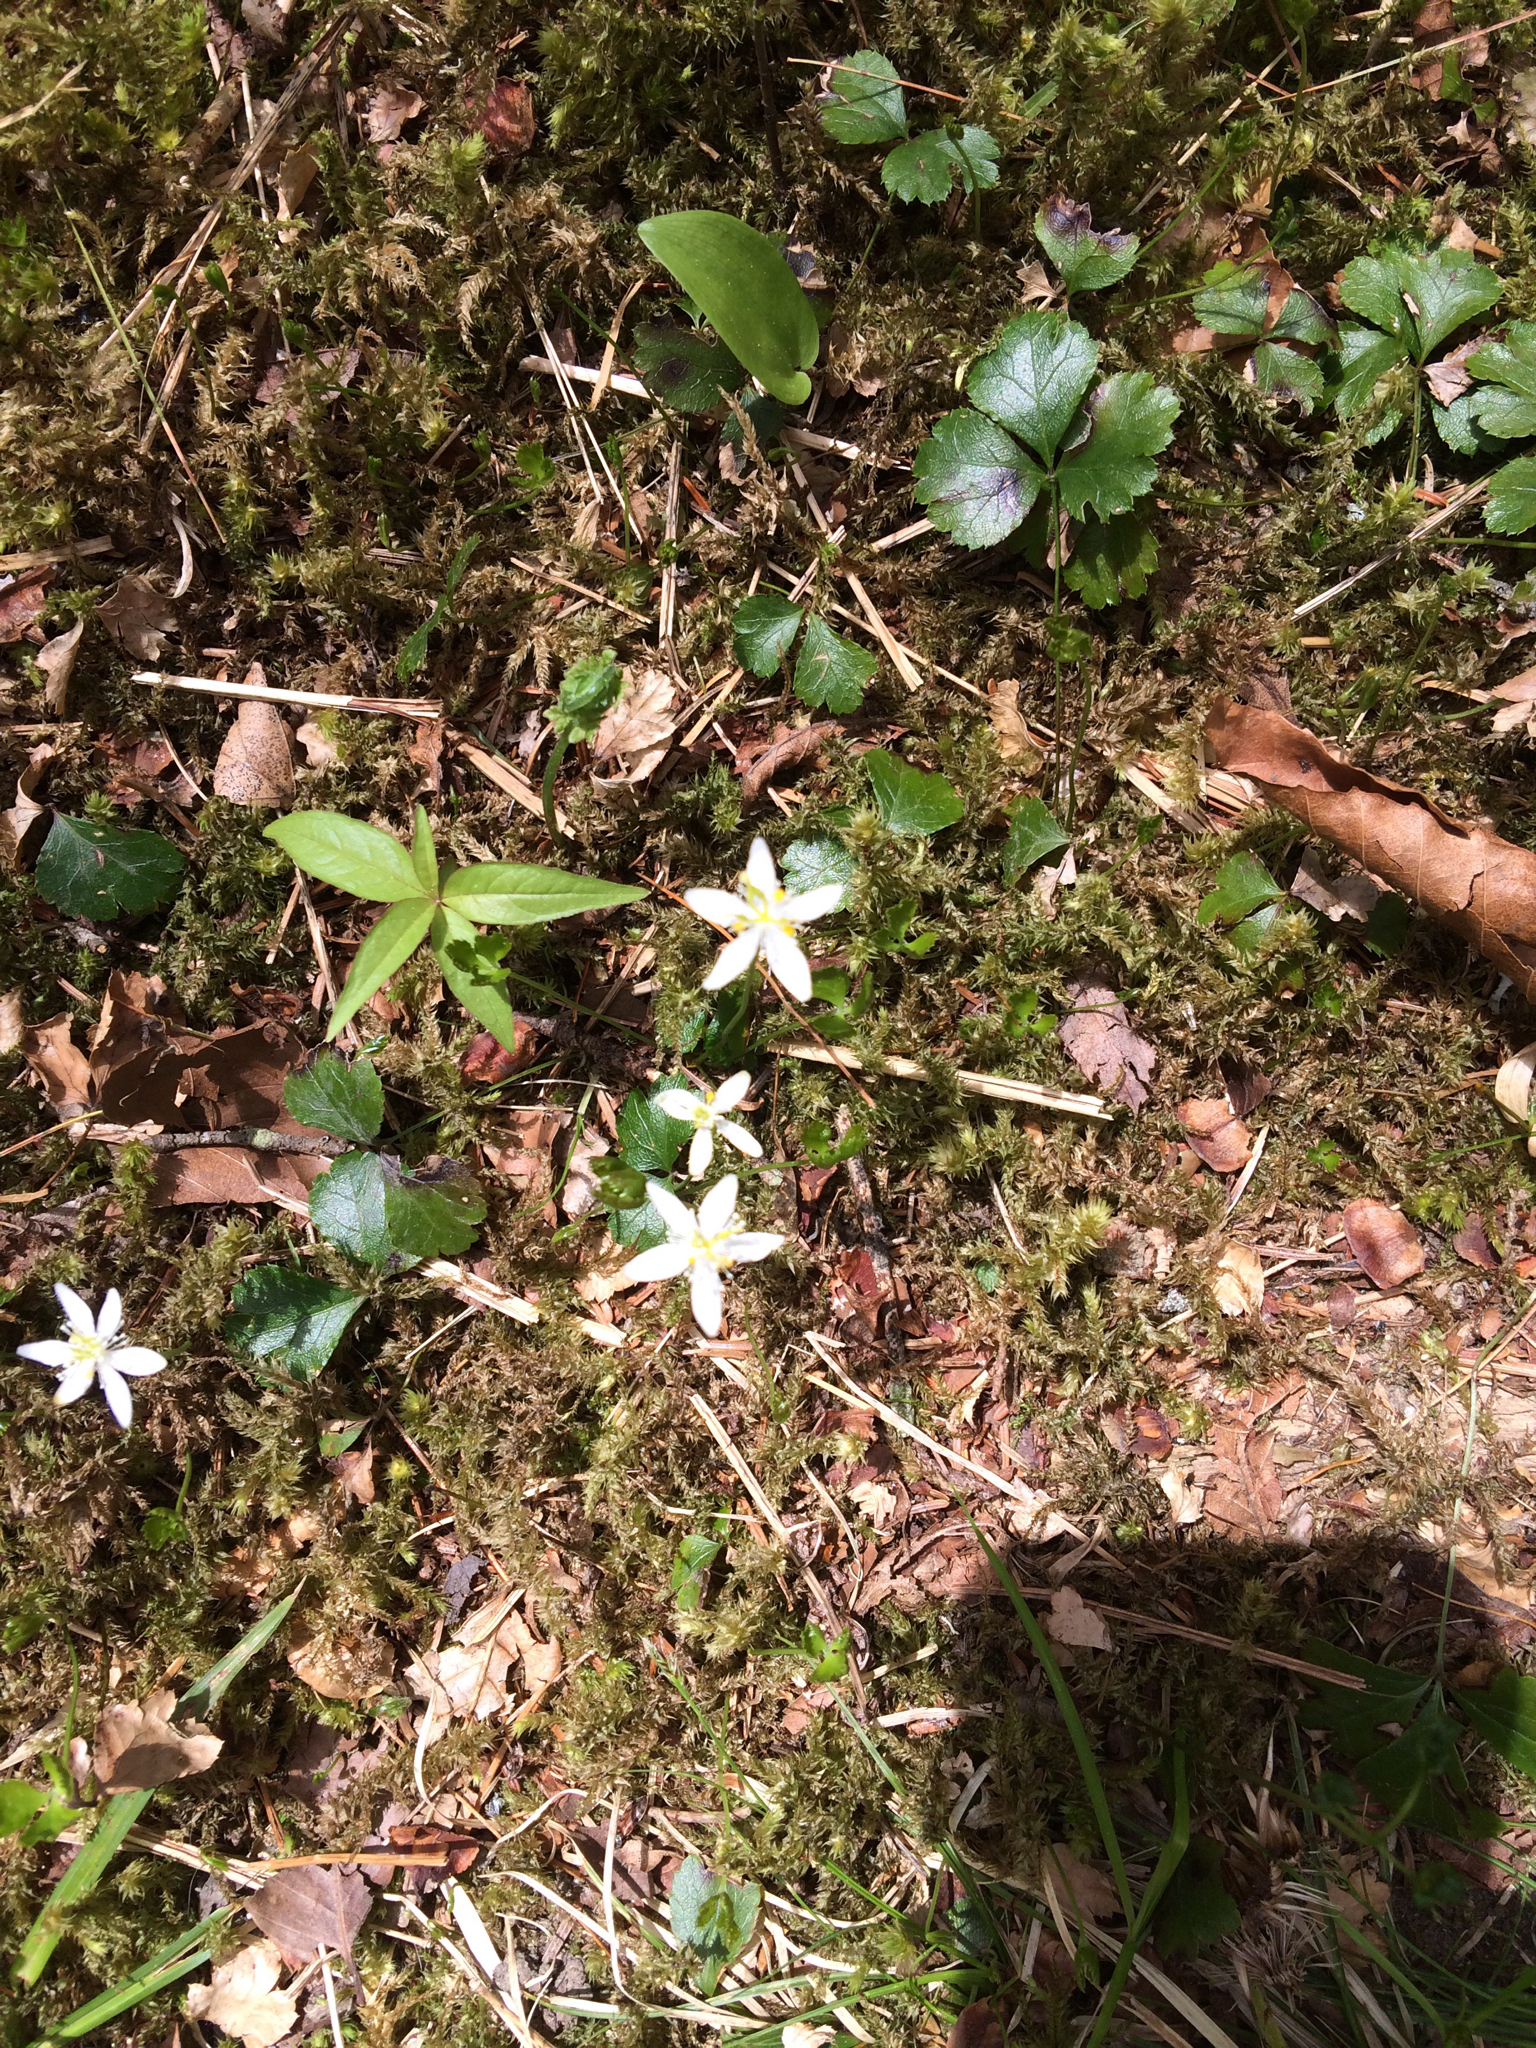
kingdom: Plantae
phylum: Tracheophyta
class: Magnoliopsida
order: Ranunculales
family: Ranunculaceae
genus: Coptis
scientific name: Coptis trifolia
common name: Canker-root
